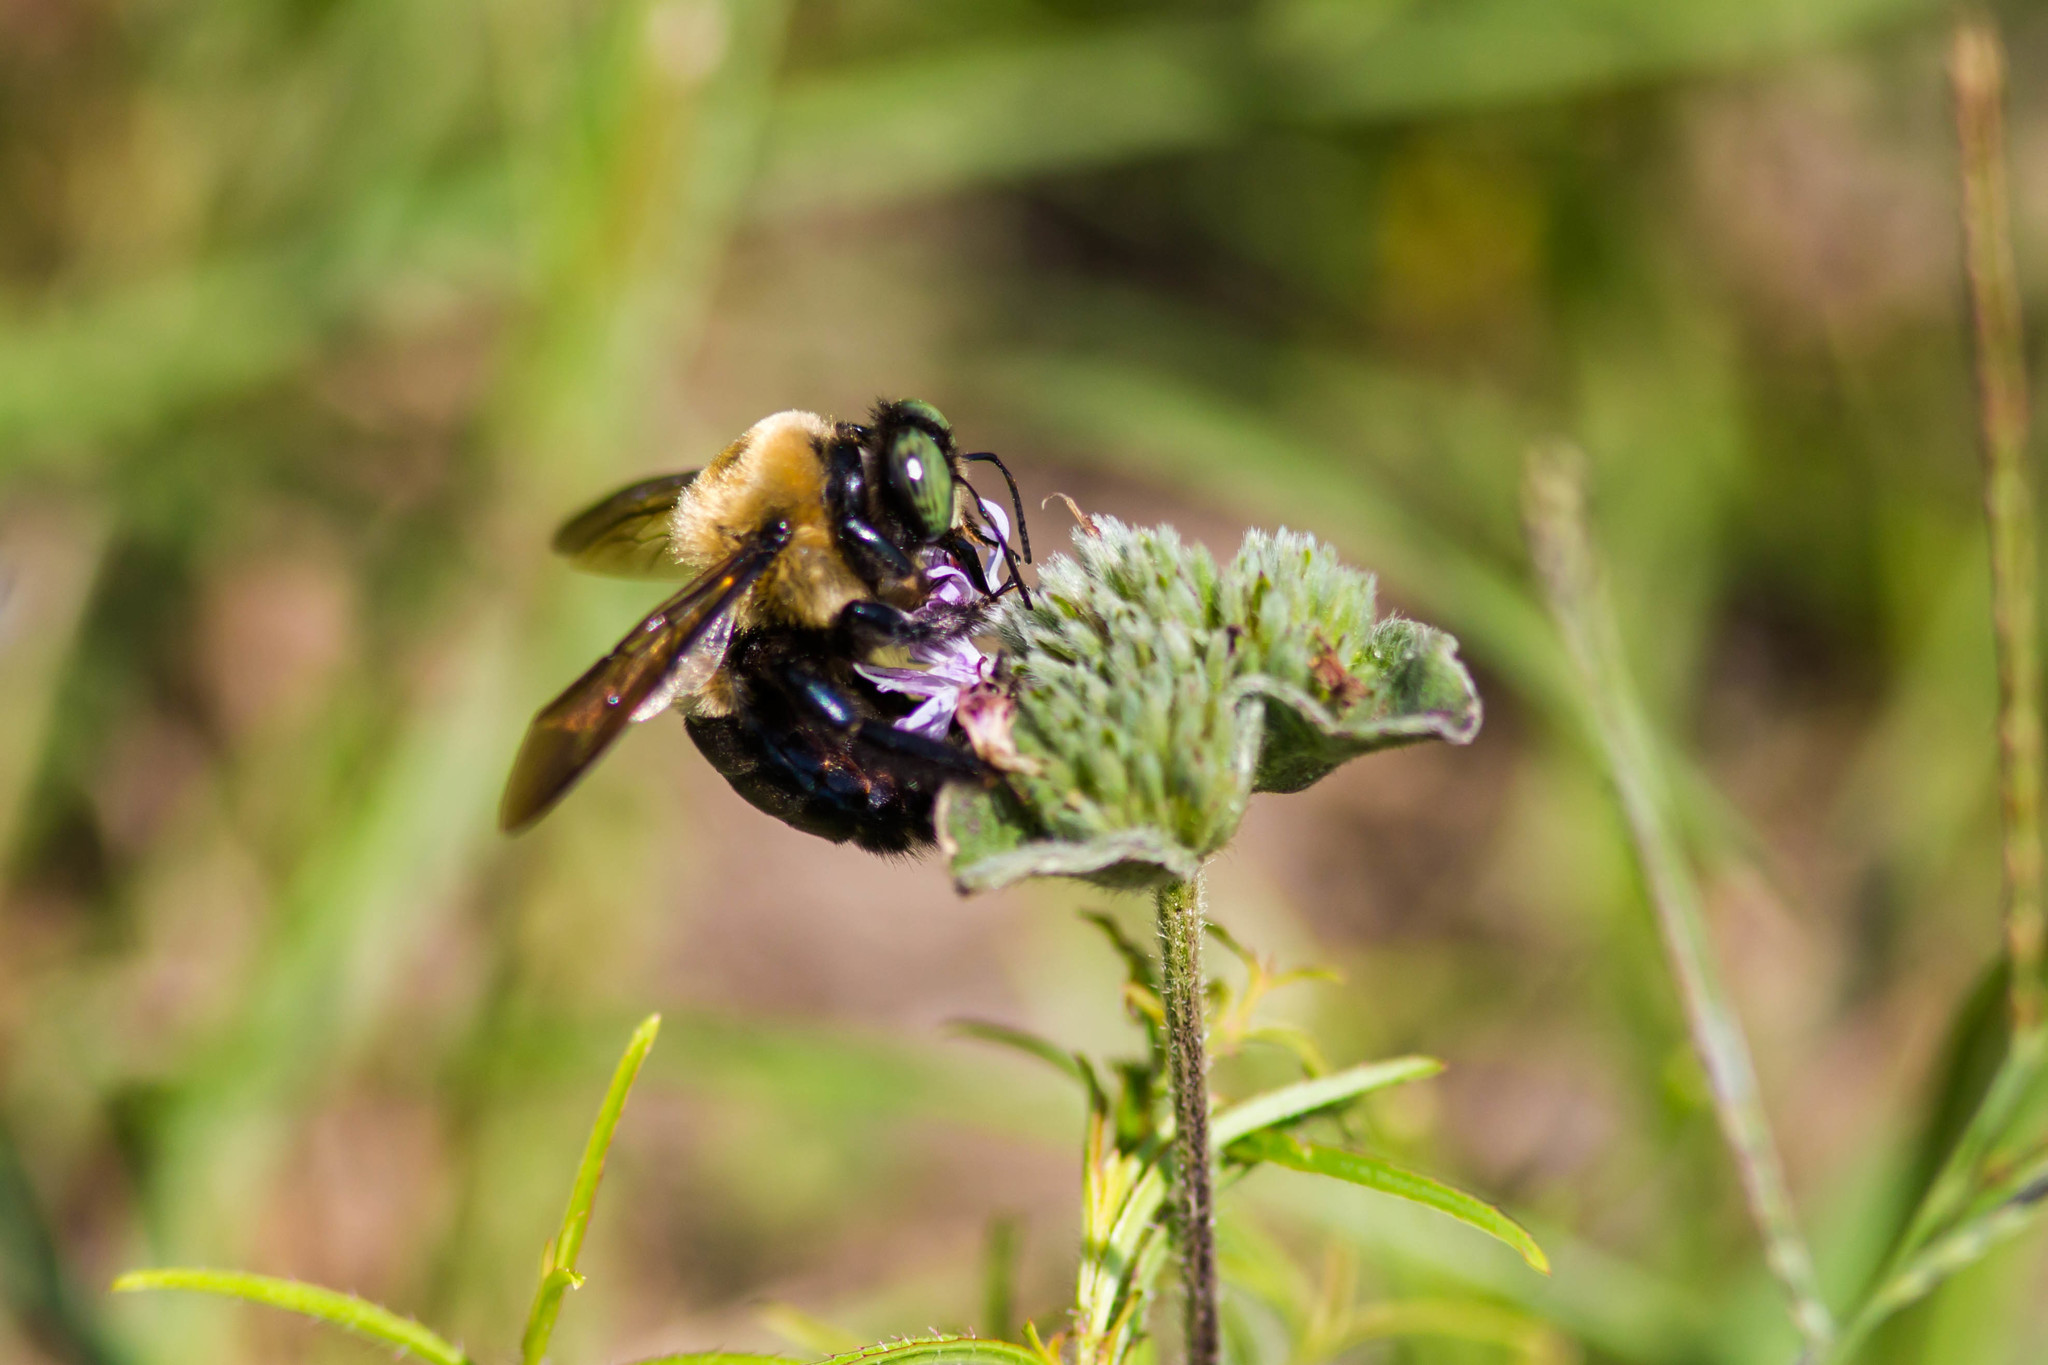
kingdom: Animalia
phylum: Arthropoda
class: Insecta
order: Hymenoptera
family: Apidae
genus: Xylocopa
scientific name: Xylocopa virginica
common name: Carpenter bee
